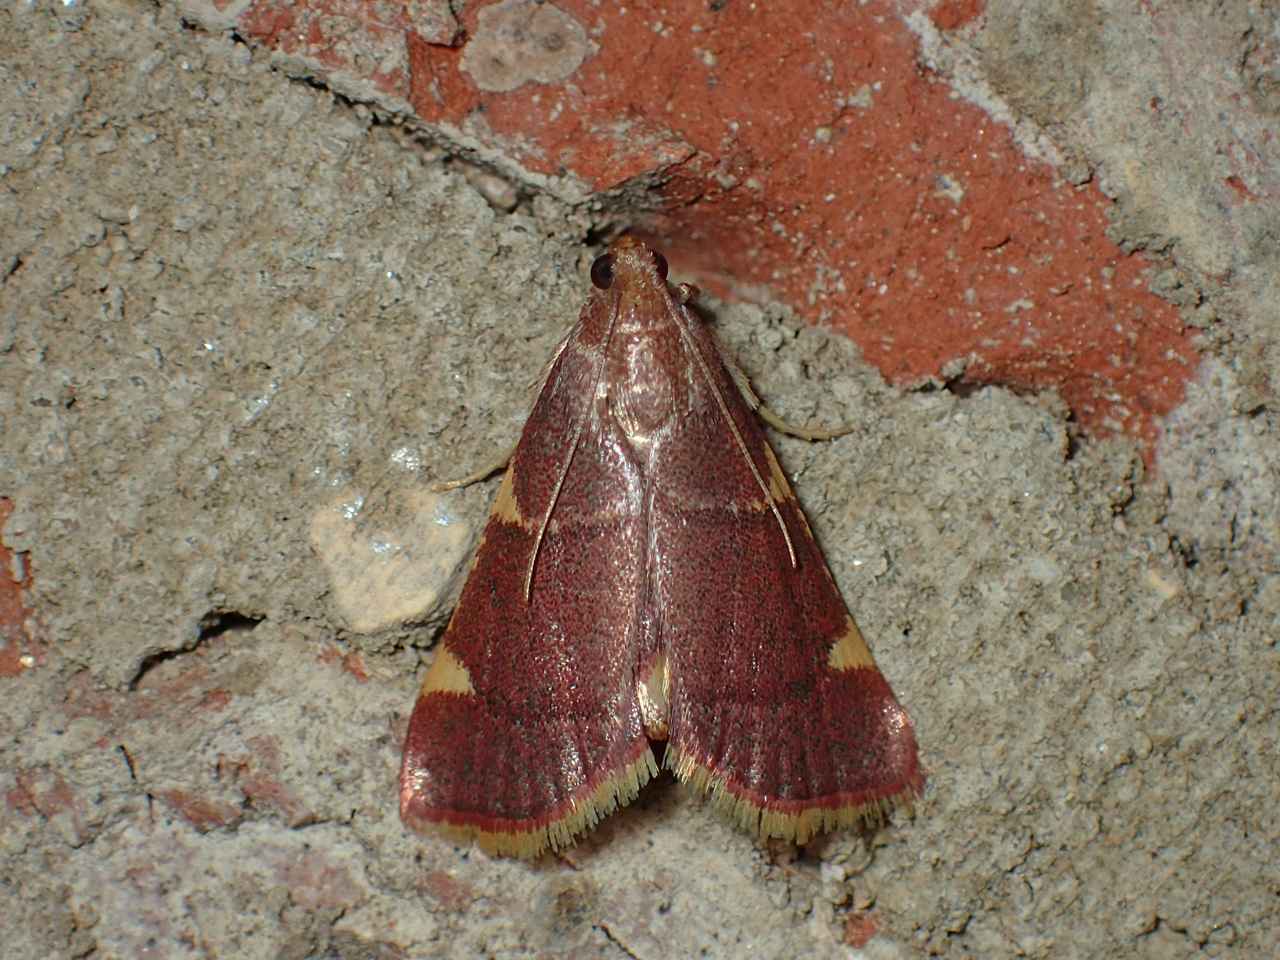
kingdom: Animalia
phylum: Arthropoda
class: Insecta
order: Lepidoptera
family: Pyralidae
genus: Hypsopygia
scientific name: Hypsopygia olinalis
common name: Yellow-fringed dolichomia moth
